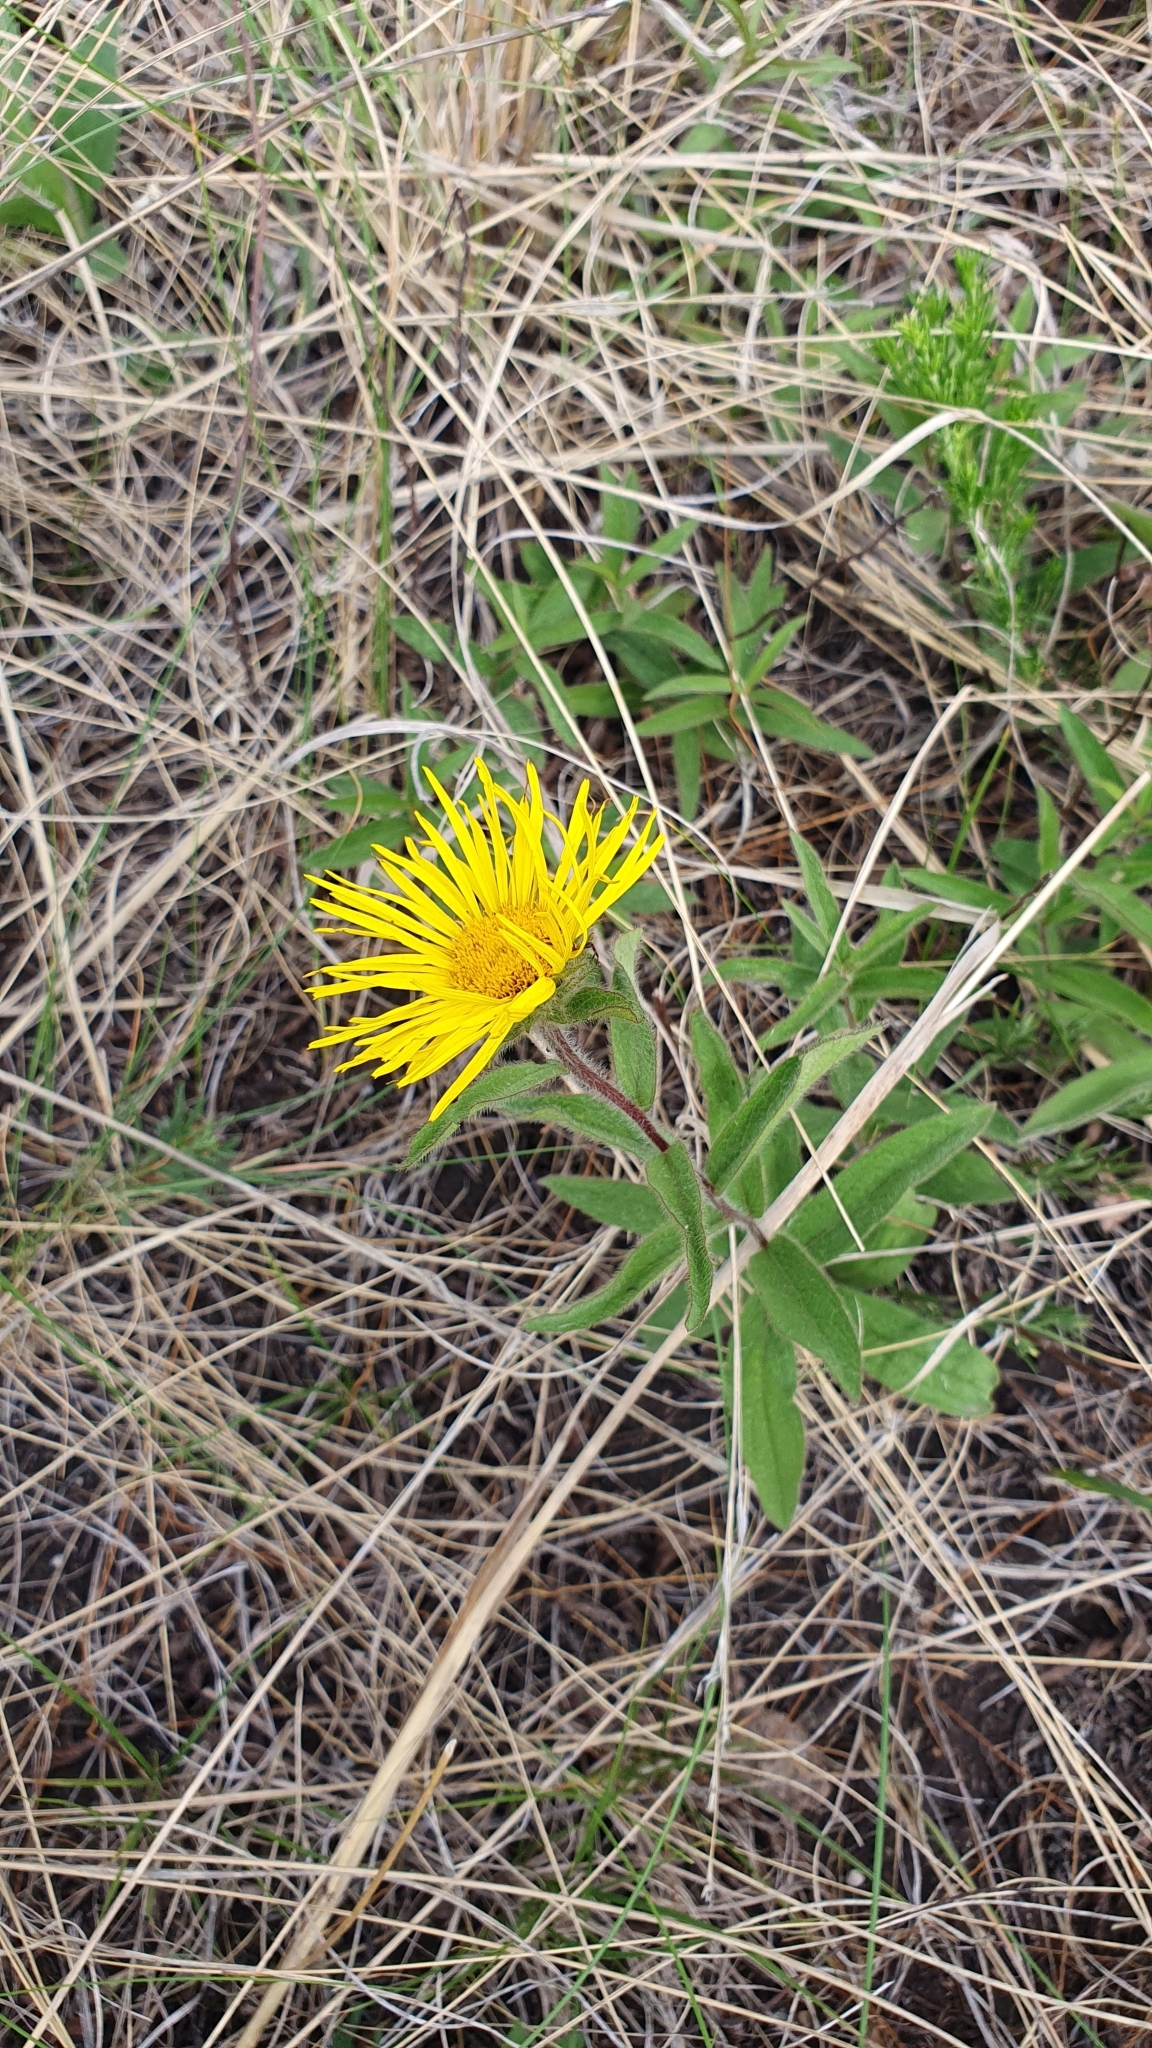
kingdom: Plantae
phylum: Tracheophyta
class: Magnoliopsida
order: Asterales
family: Asteraceae
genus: Pentanema
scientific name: Pentanema hirtum
